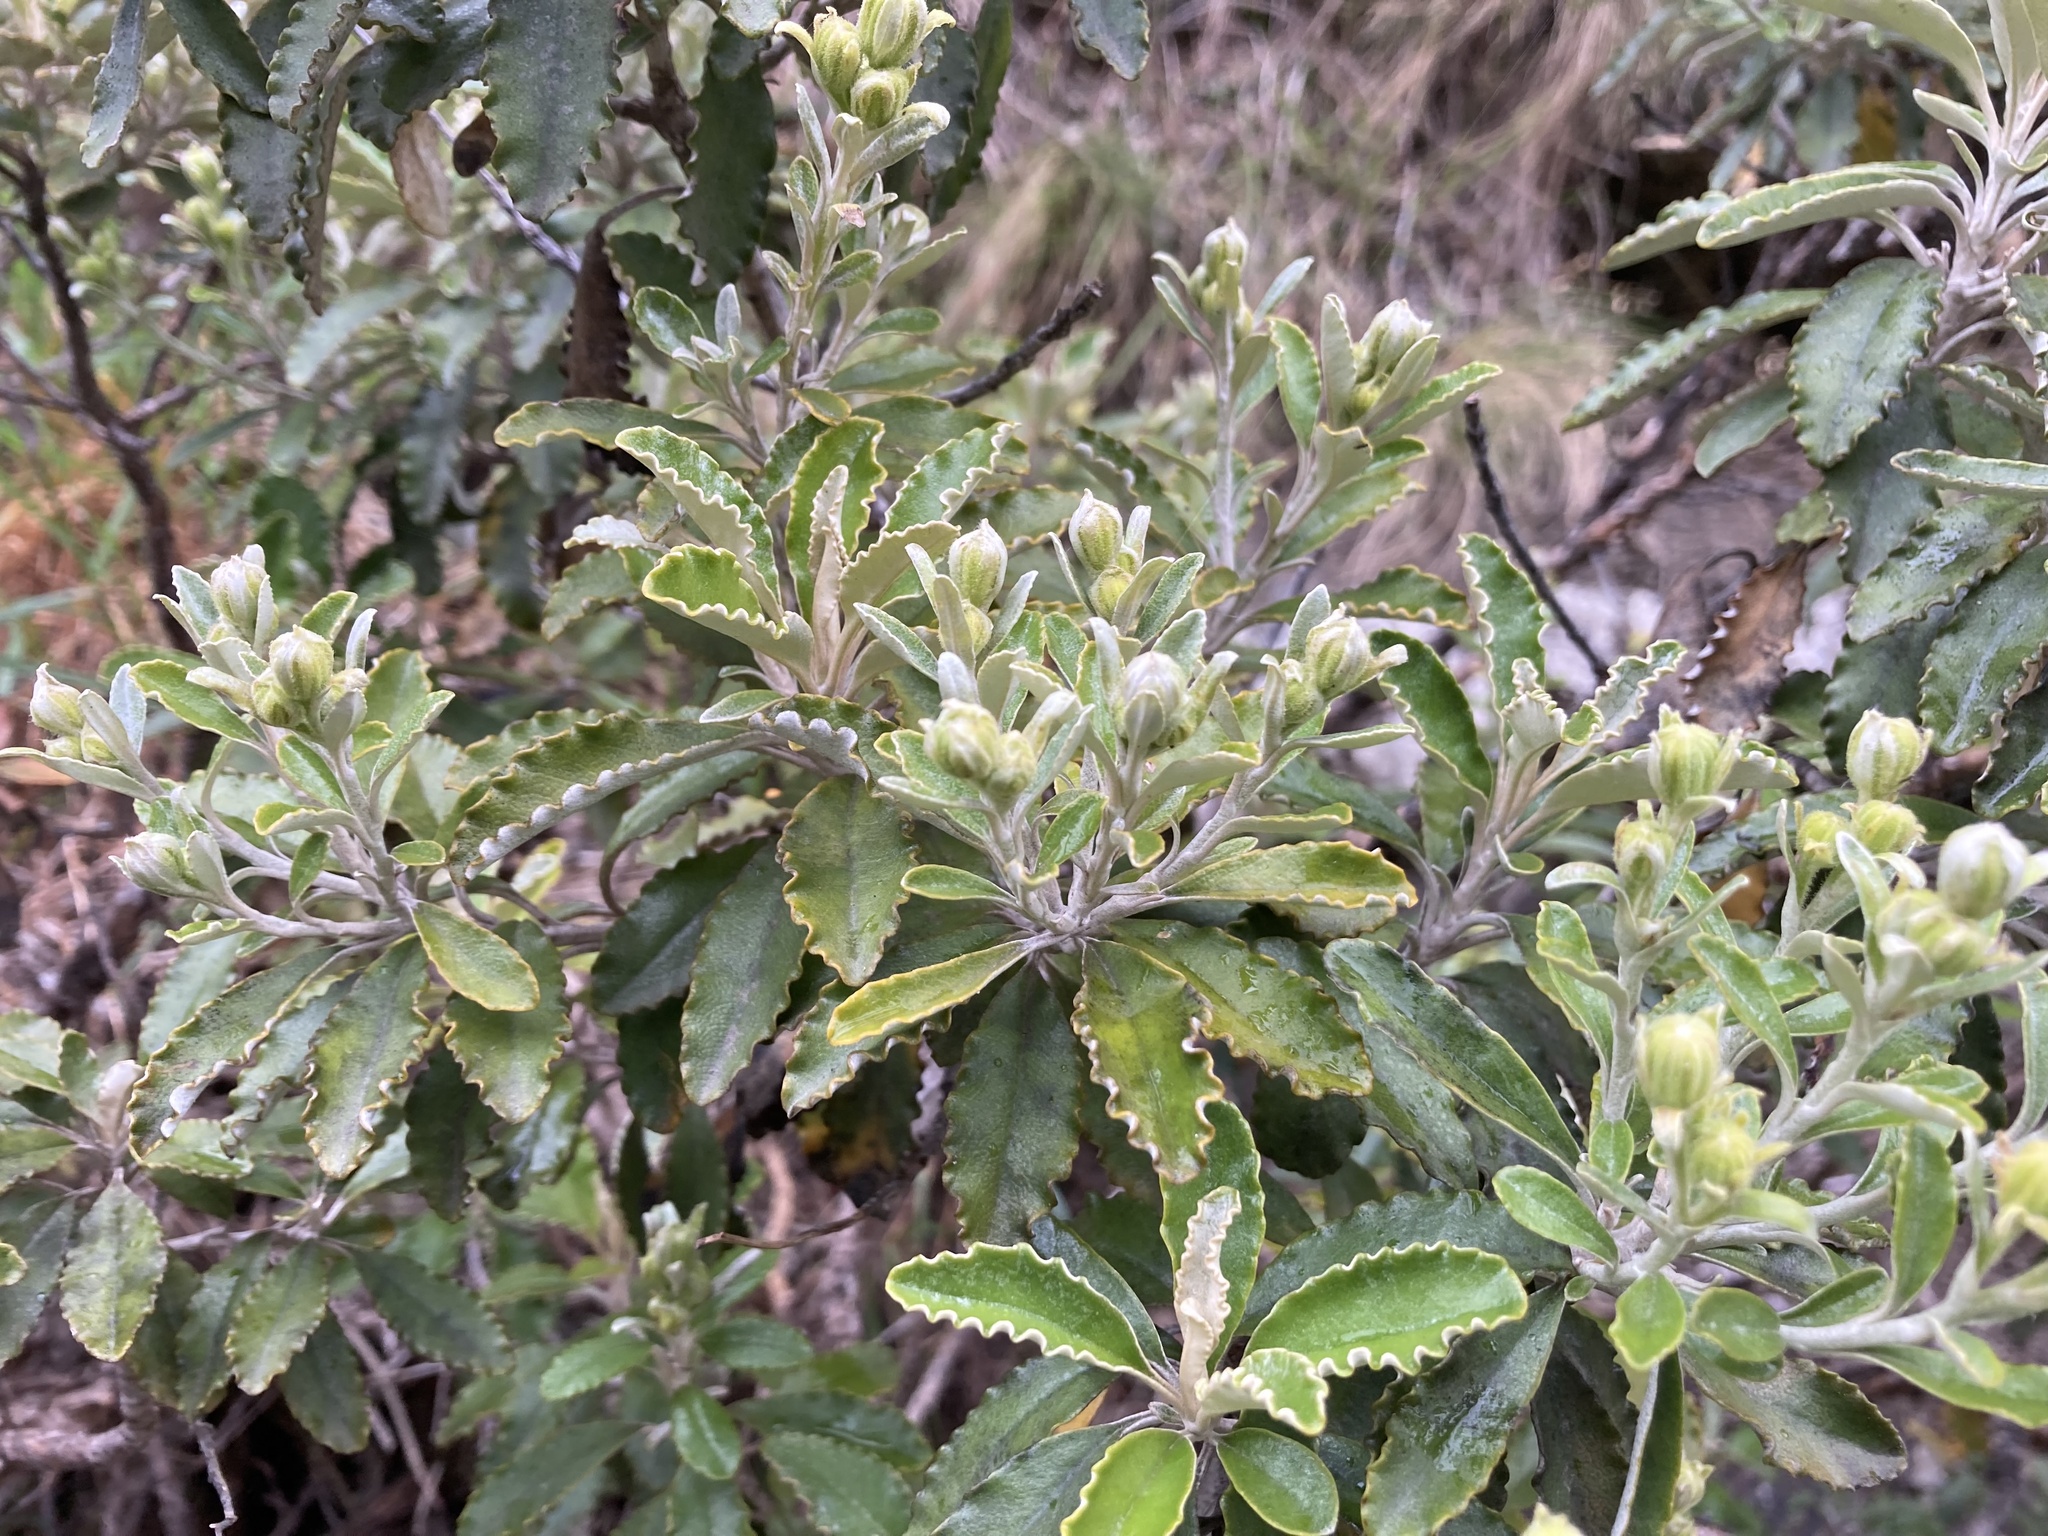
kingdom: Plantae
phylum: Tracheophyta
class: Magnoliopsida
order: Asterales
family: Asteraceae
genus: Brachyglottis
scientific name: Brachyglottis monroi
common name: Monro's ragwort
